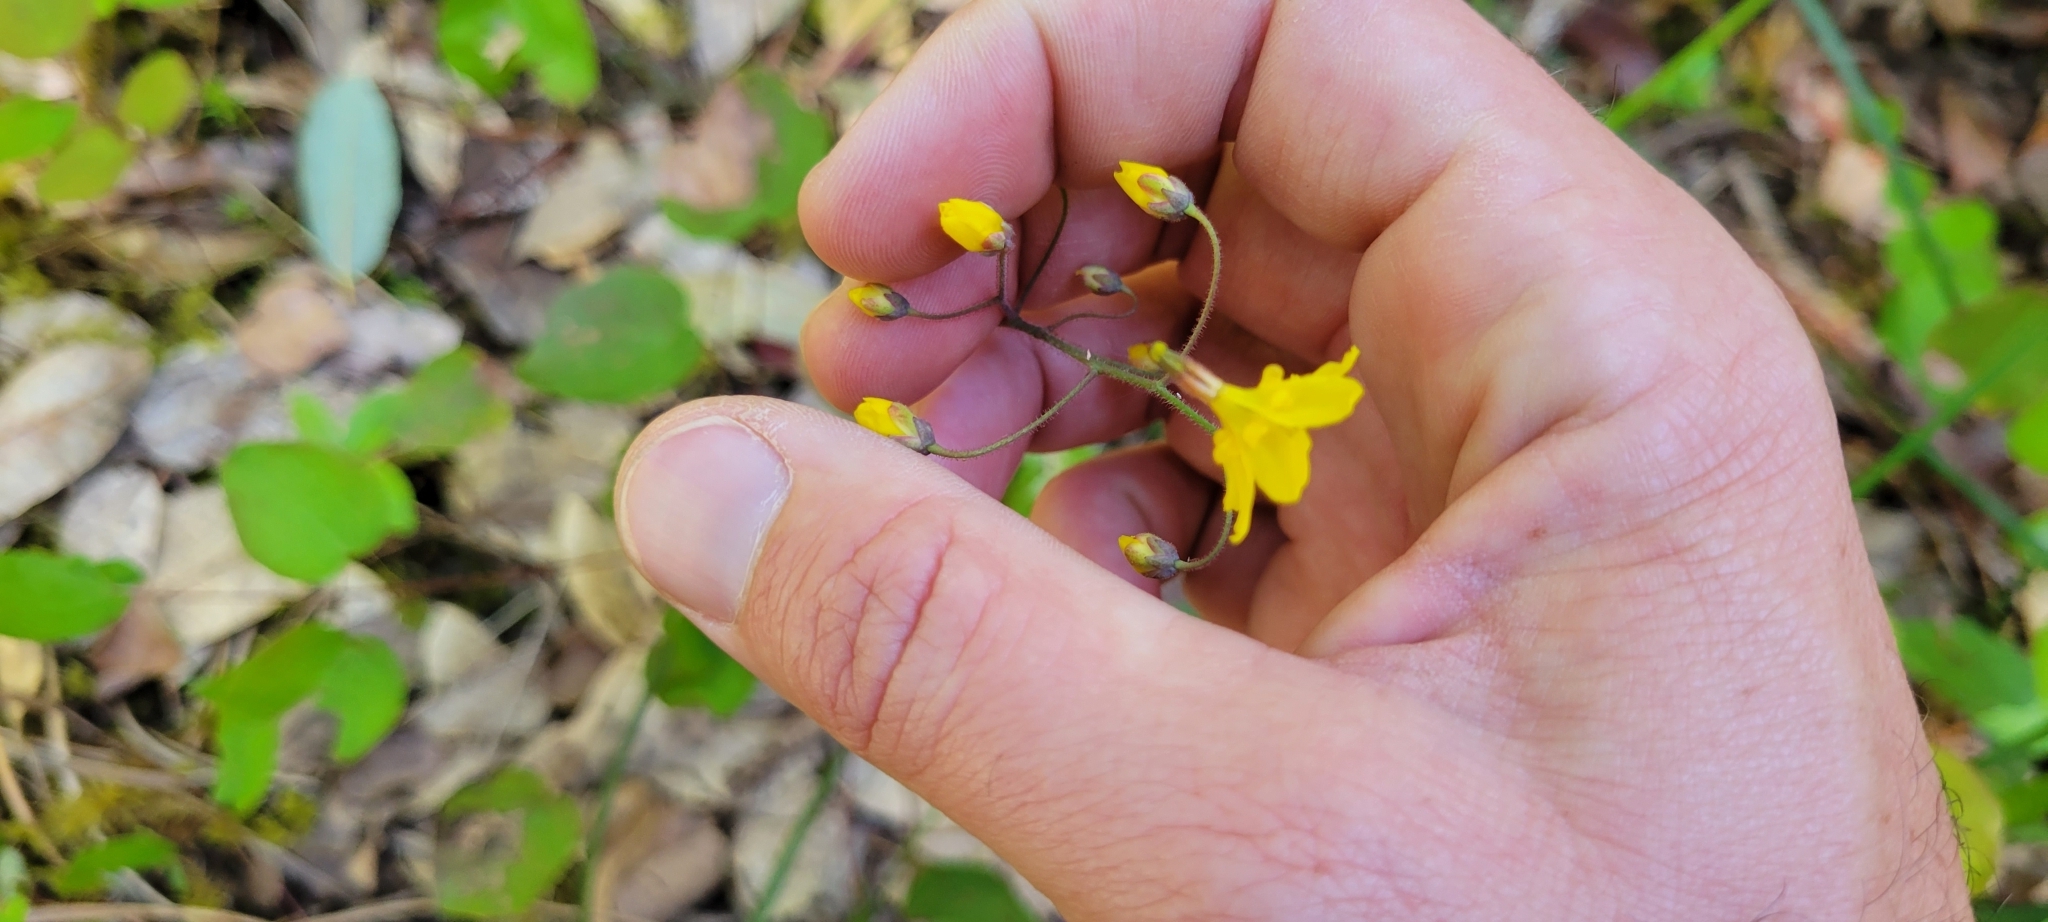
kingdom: Plantae
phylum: Tracheophyta
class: Magnoliopsida
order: Ranunculales
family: Berberidaceae
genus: Vancouveria
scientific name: Vancouveria chrysantha
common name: Siskiyou inside-out-flower
